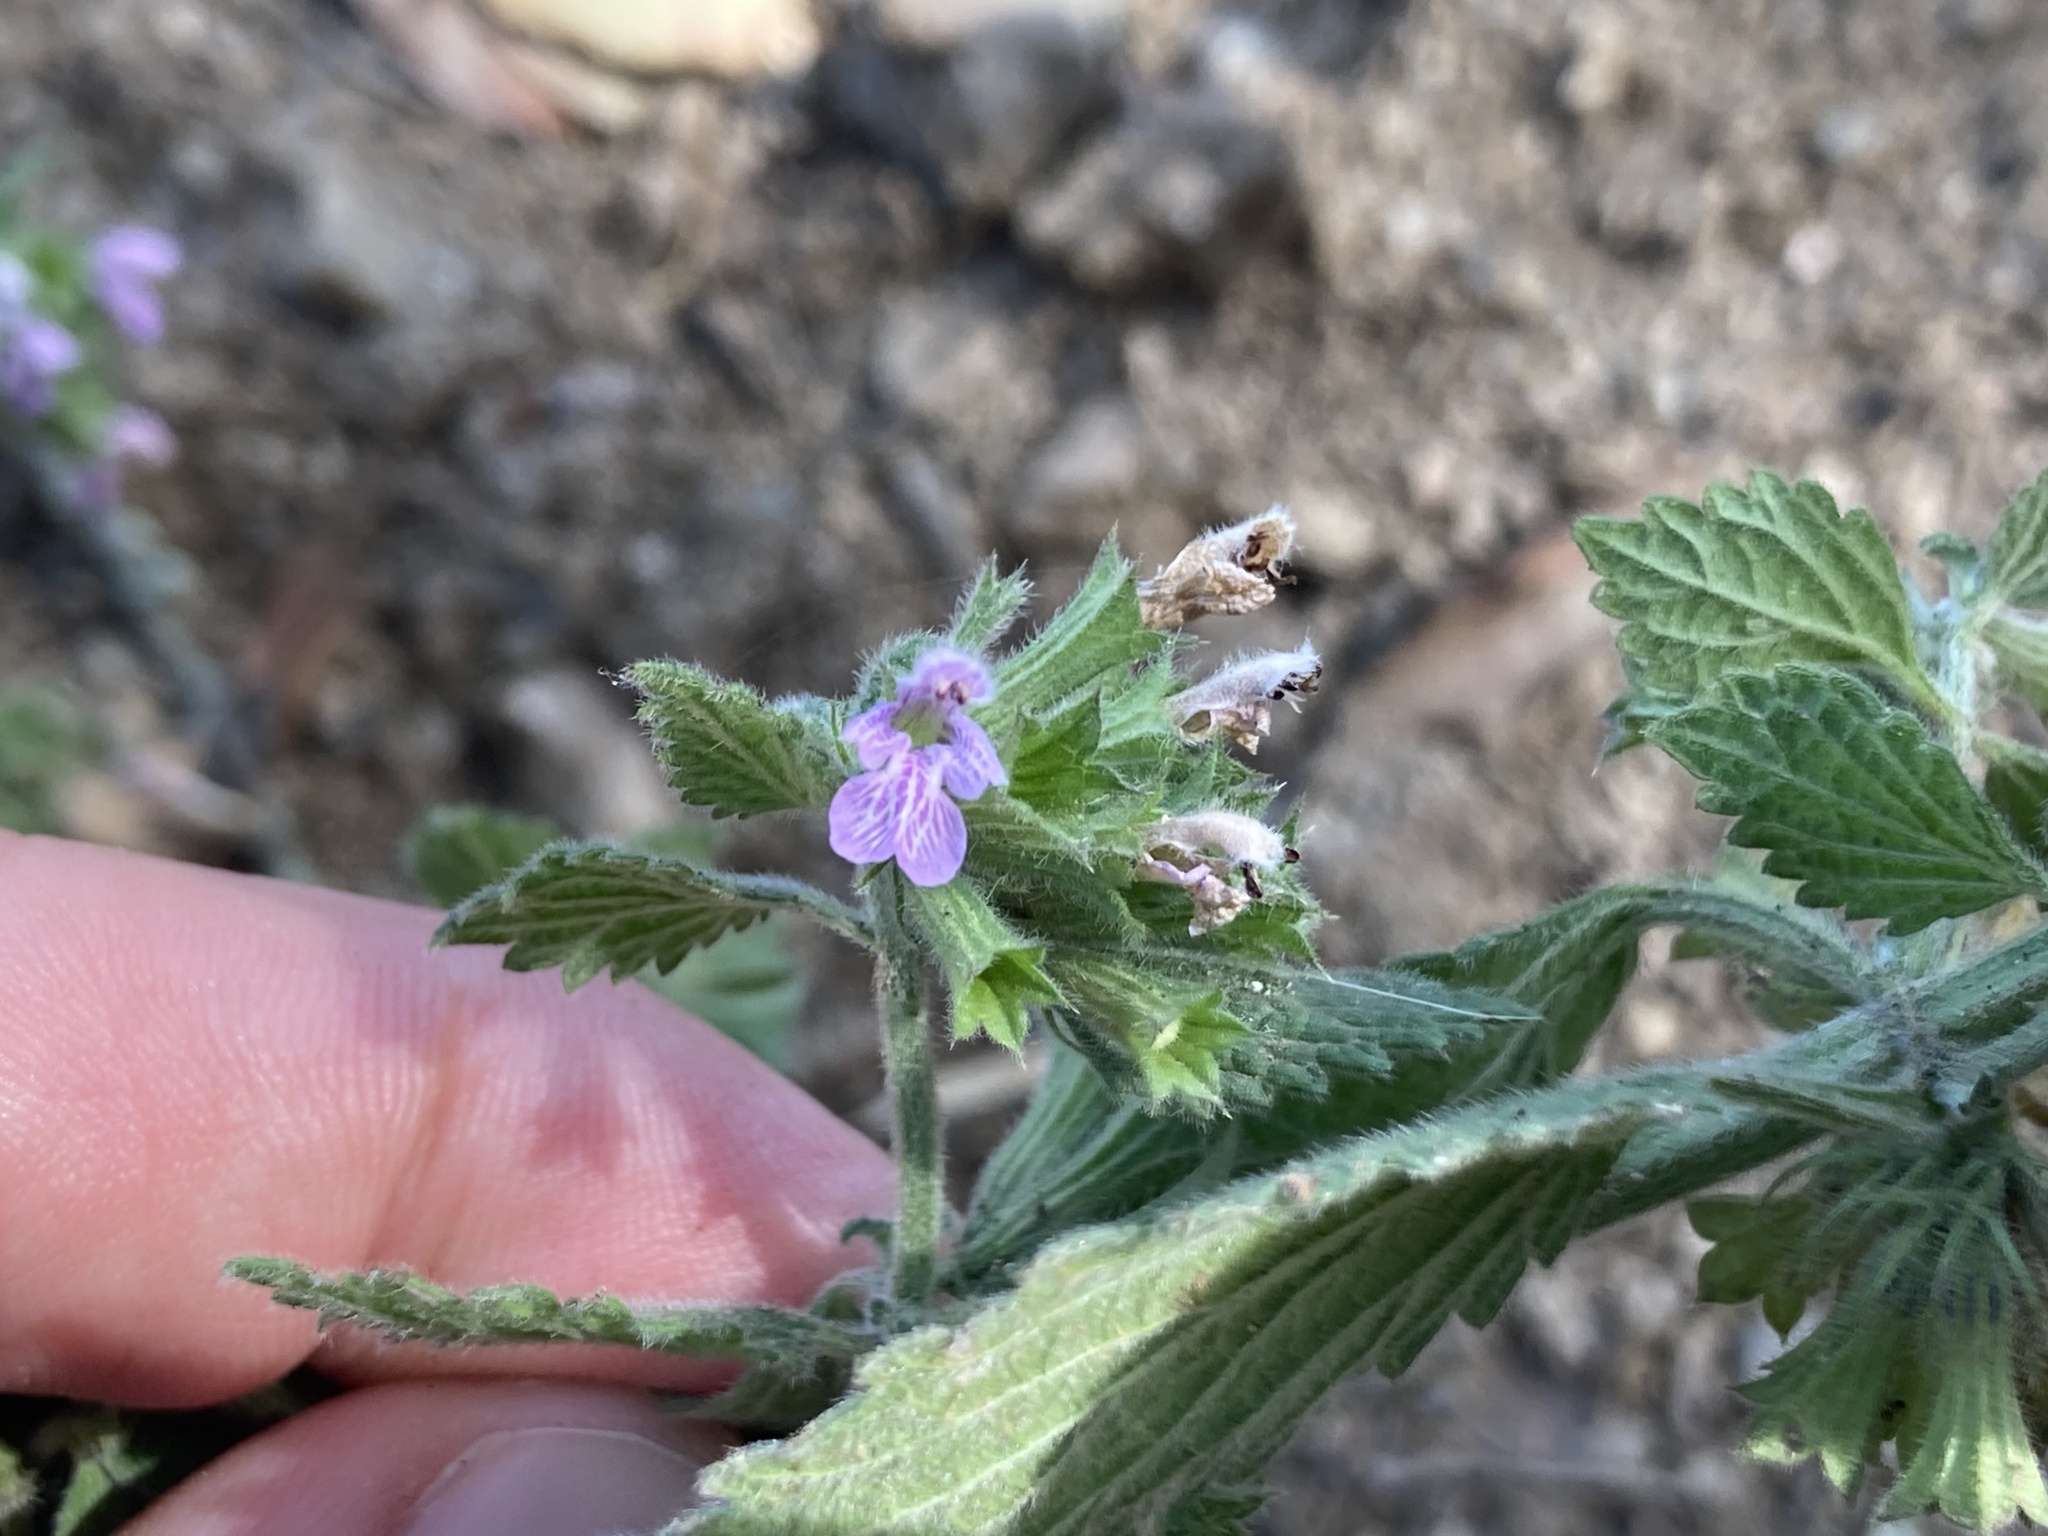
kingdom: Plantae
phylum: Tracheophyta
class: Magnoliopsida
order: Lamiales
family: Lamiaceae
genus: Ballota
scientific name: Ballota nigra
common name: Black horehound
